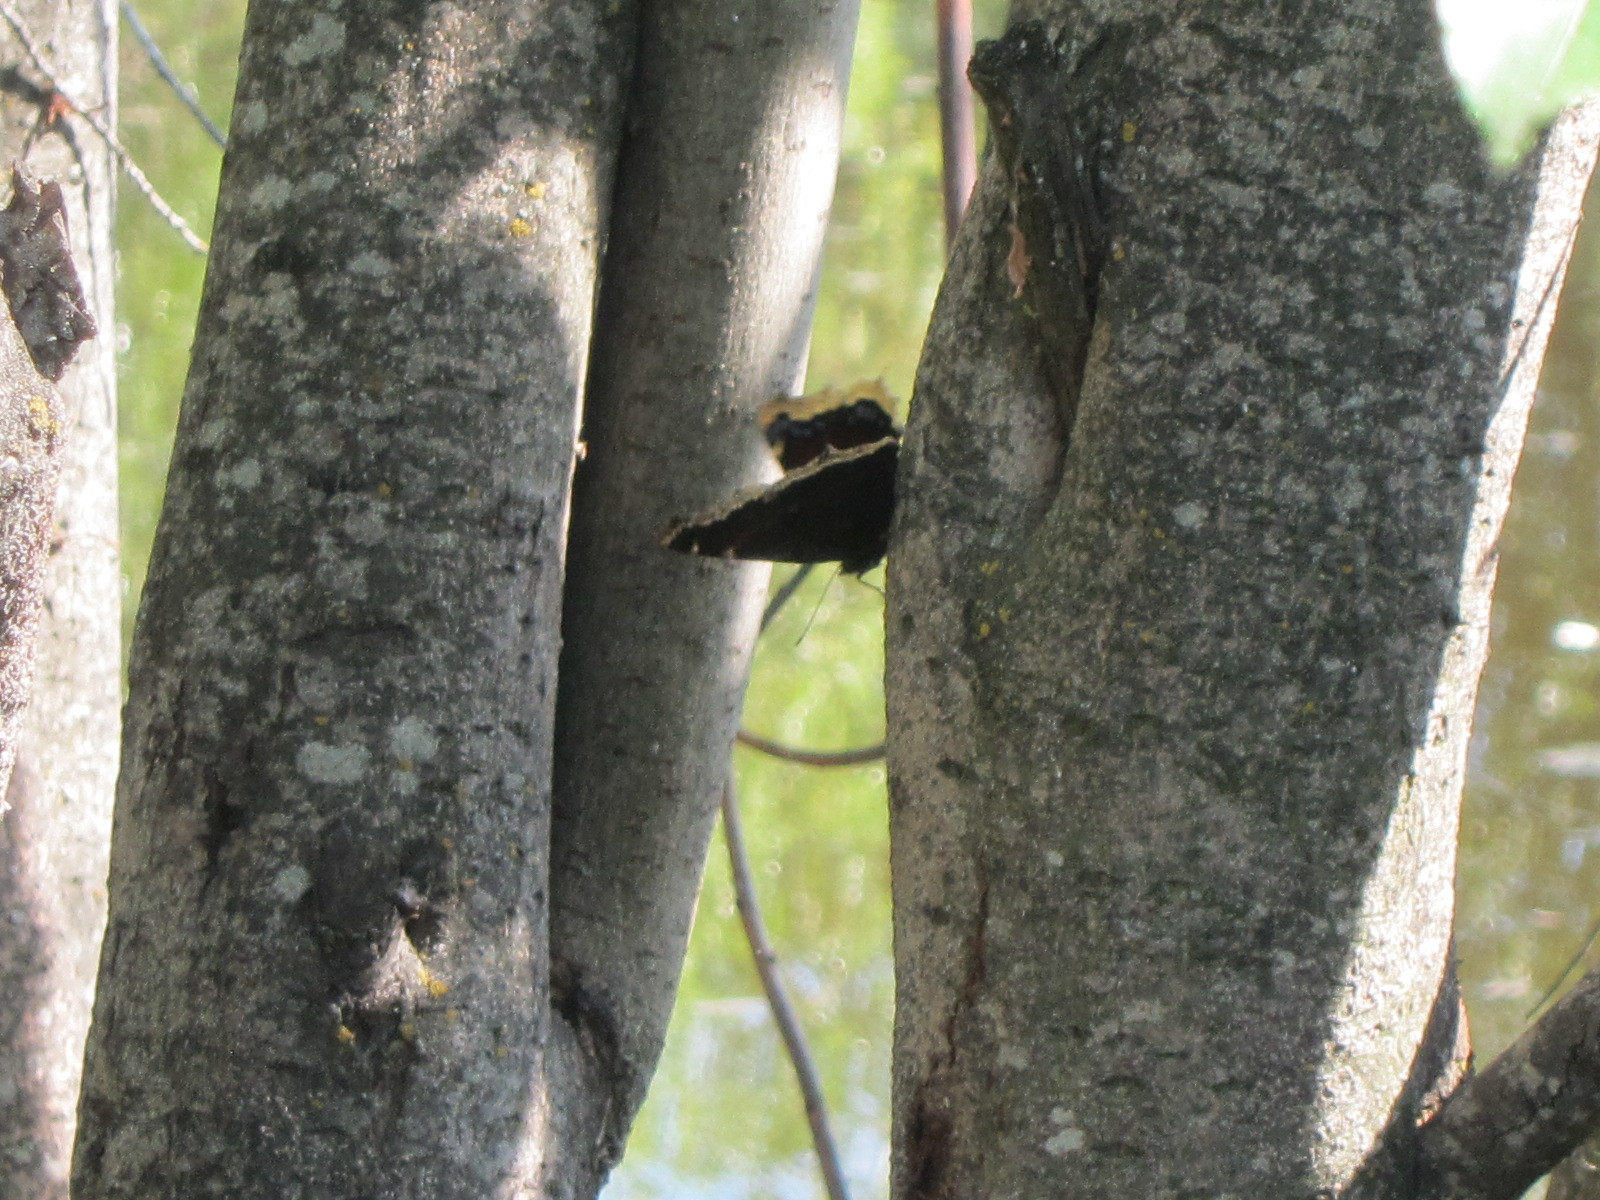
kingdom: Animalia
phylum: Arthropoda
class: Insecta
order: Lepidoptera
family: Nymphalidae
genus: Nymphalis
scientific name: Nymphalis antiopa
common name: Camberwell beauty
